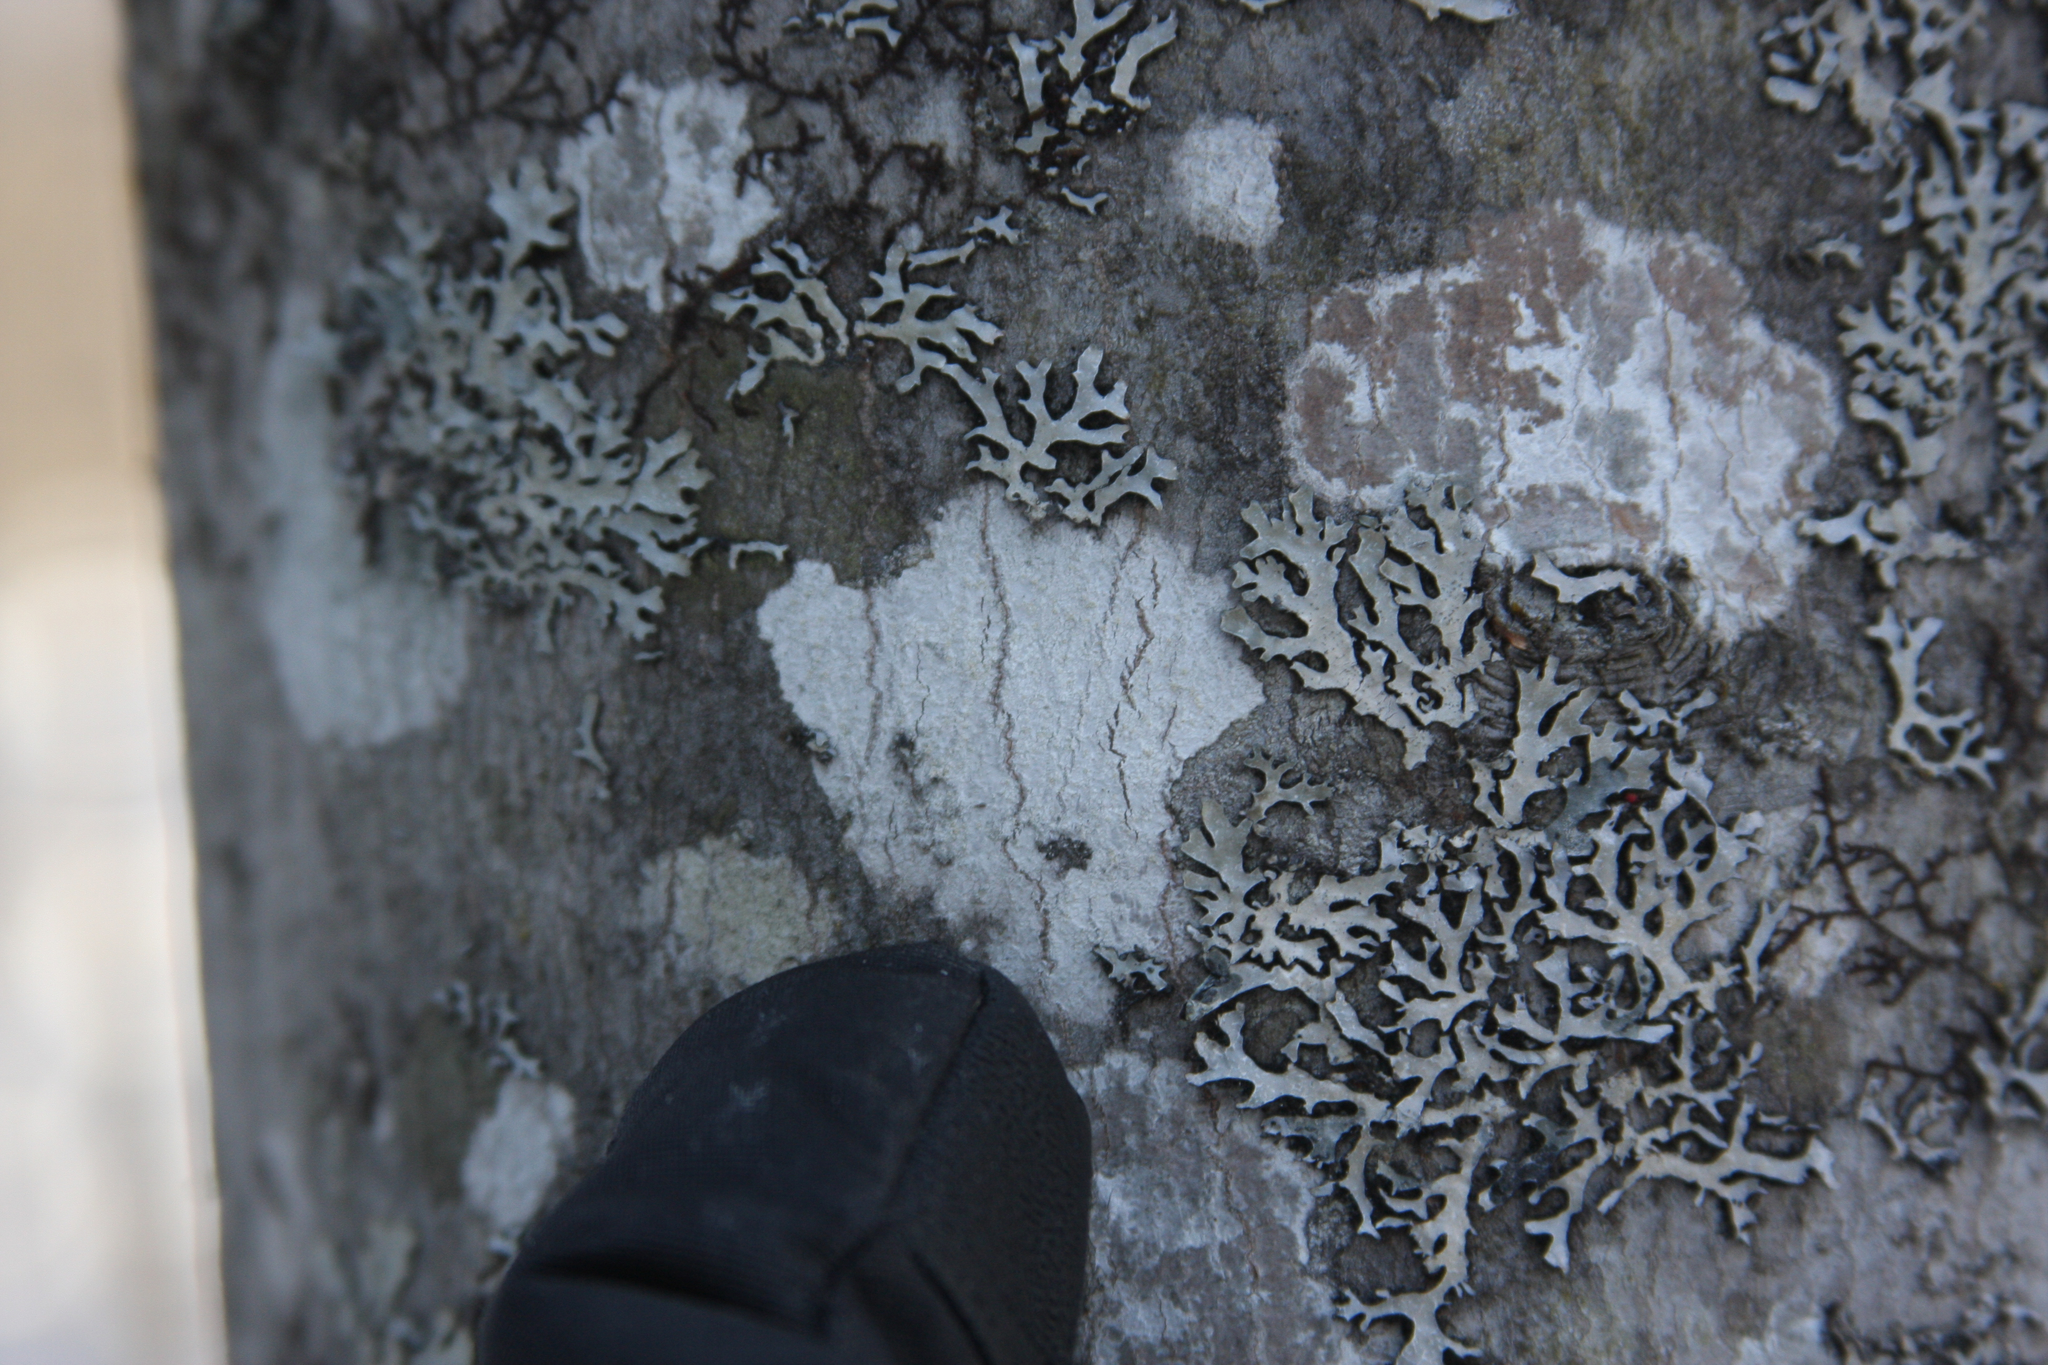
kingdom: Fungi
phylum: Ascomycota
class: Lecanoromycetes
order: Lecanorales
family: Parmeliaceae
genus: Parmelia
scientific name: Parmelia sulcata
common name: Netted shield lichen
